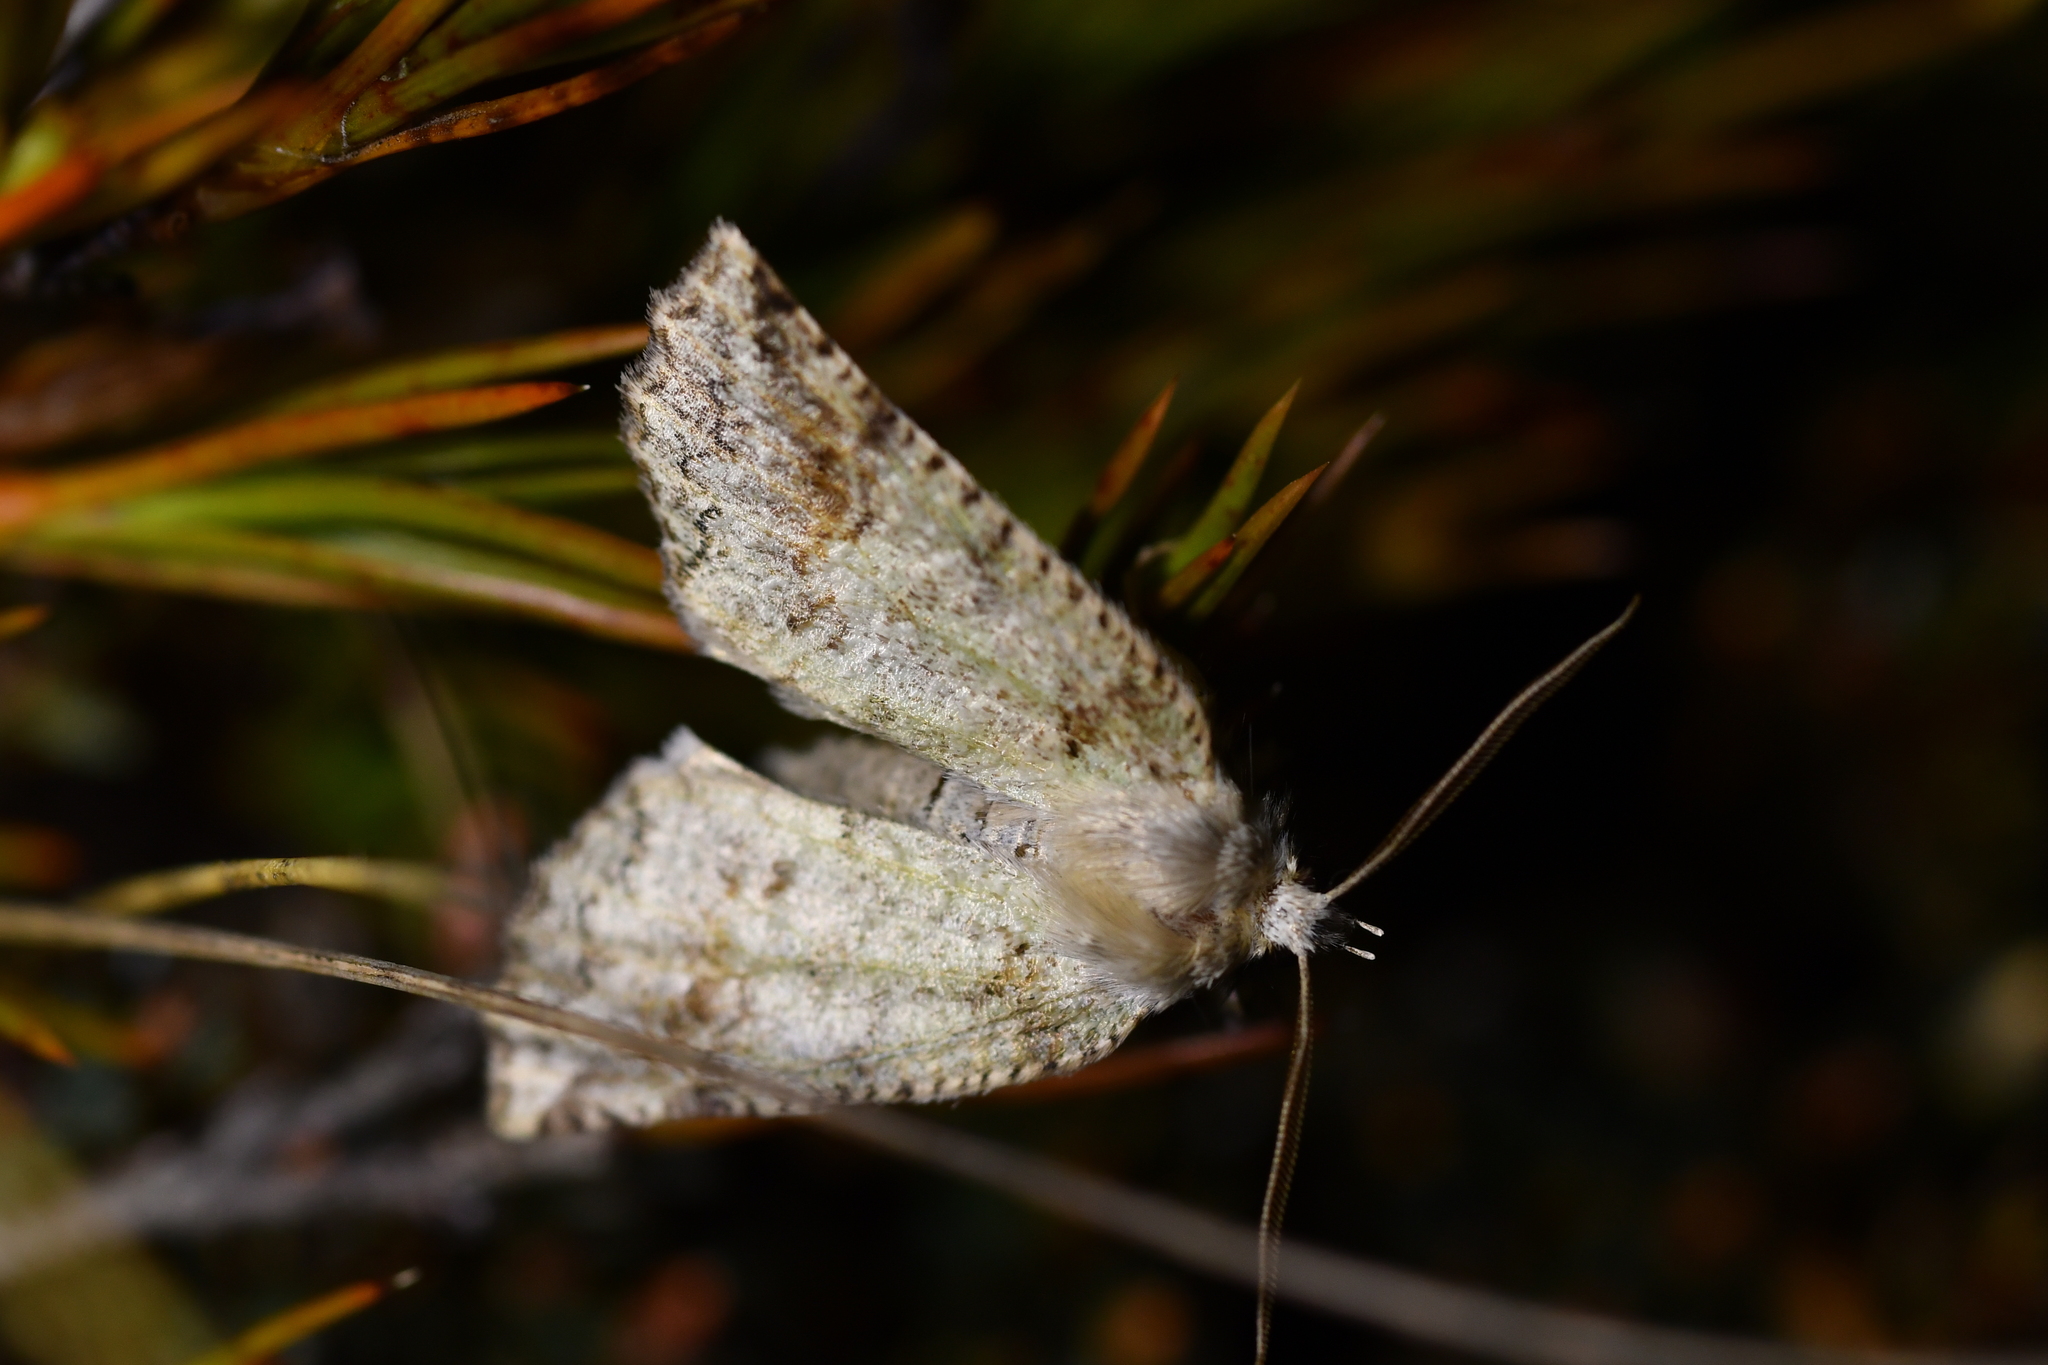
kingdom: Animalia
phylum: Arthropoda
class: Insecta
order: Lepidoptera
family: Geometridae
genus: Declana
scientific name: Declana floccosa
